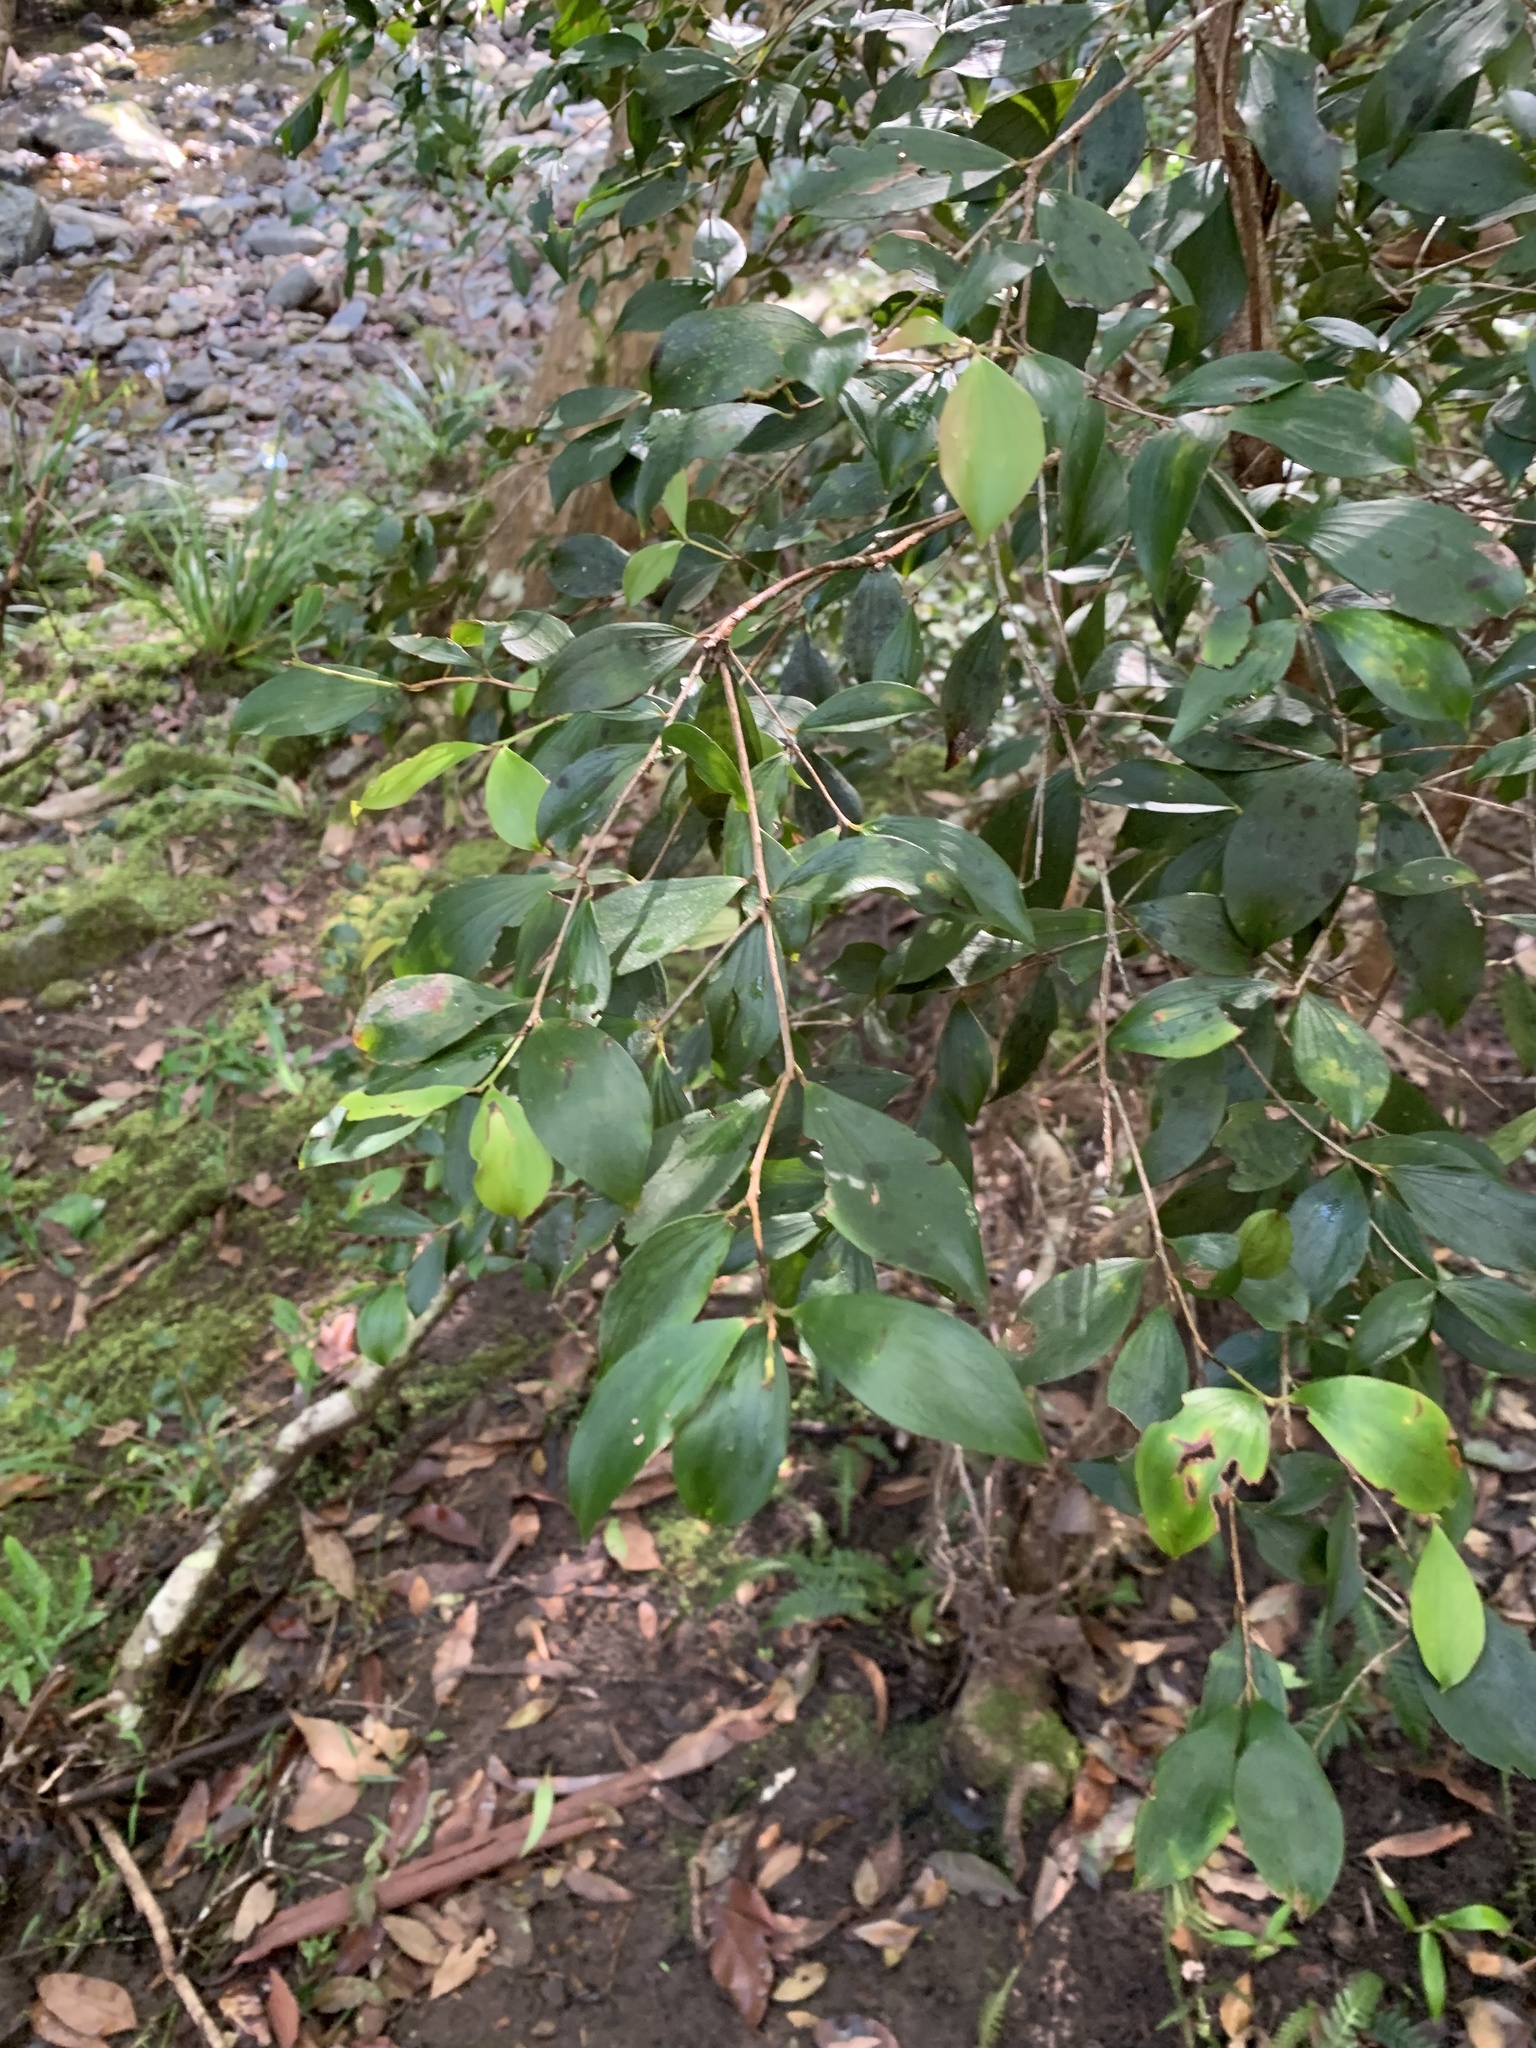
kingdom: Plantae
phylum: Tracheophyta
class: Magnoliopsida
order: Ericales
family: Ericaceae
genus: Trochocarpa
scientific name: Trochocarpa laurina
